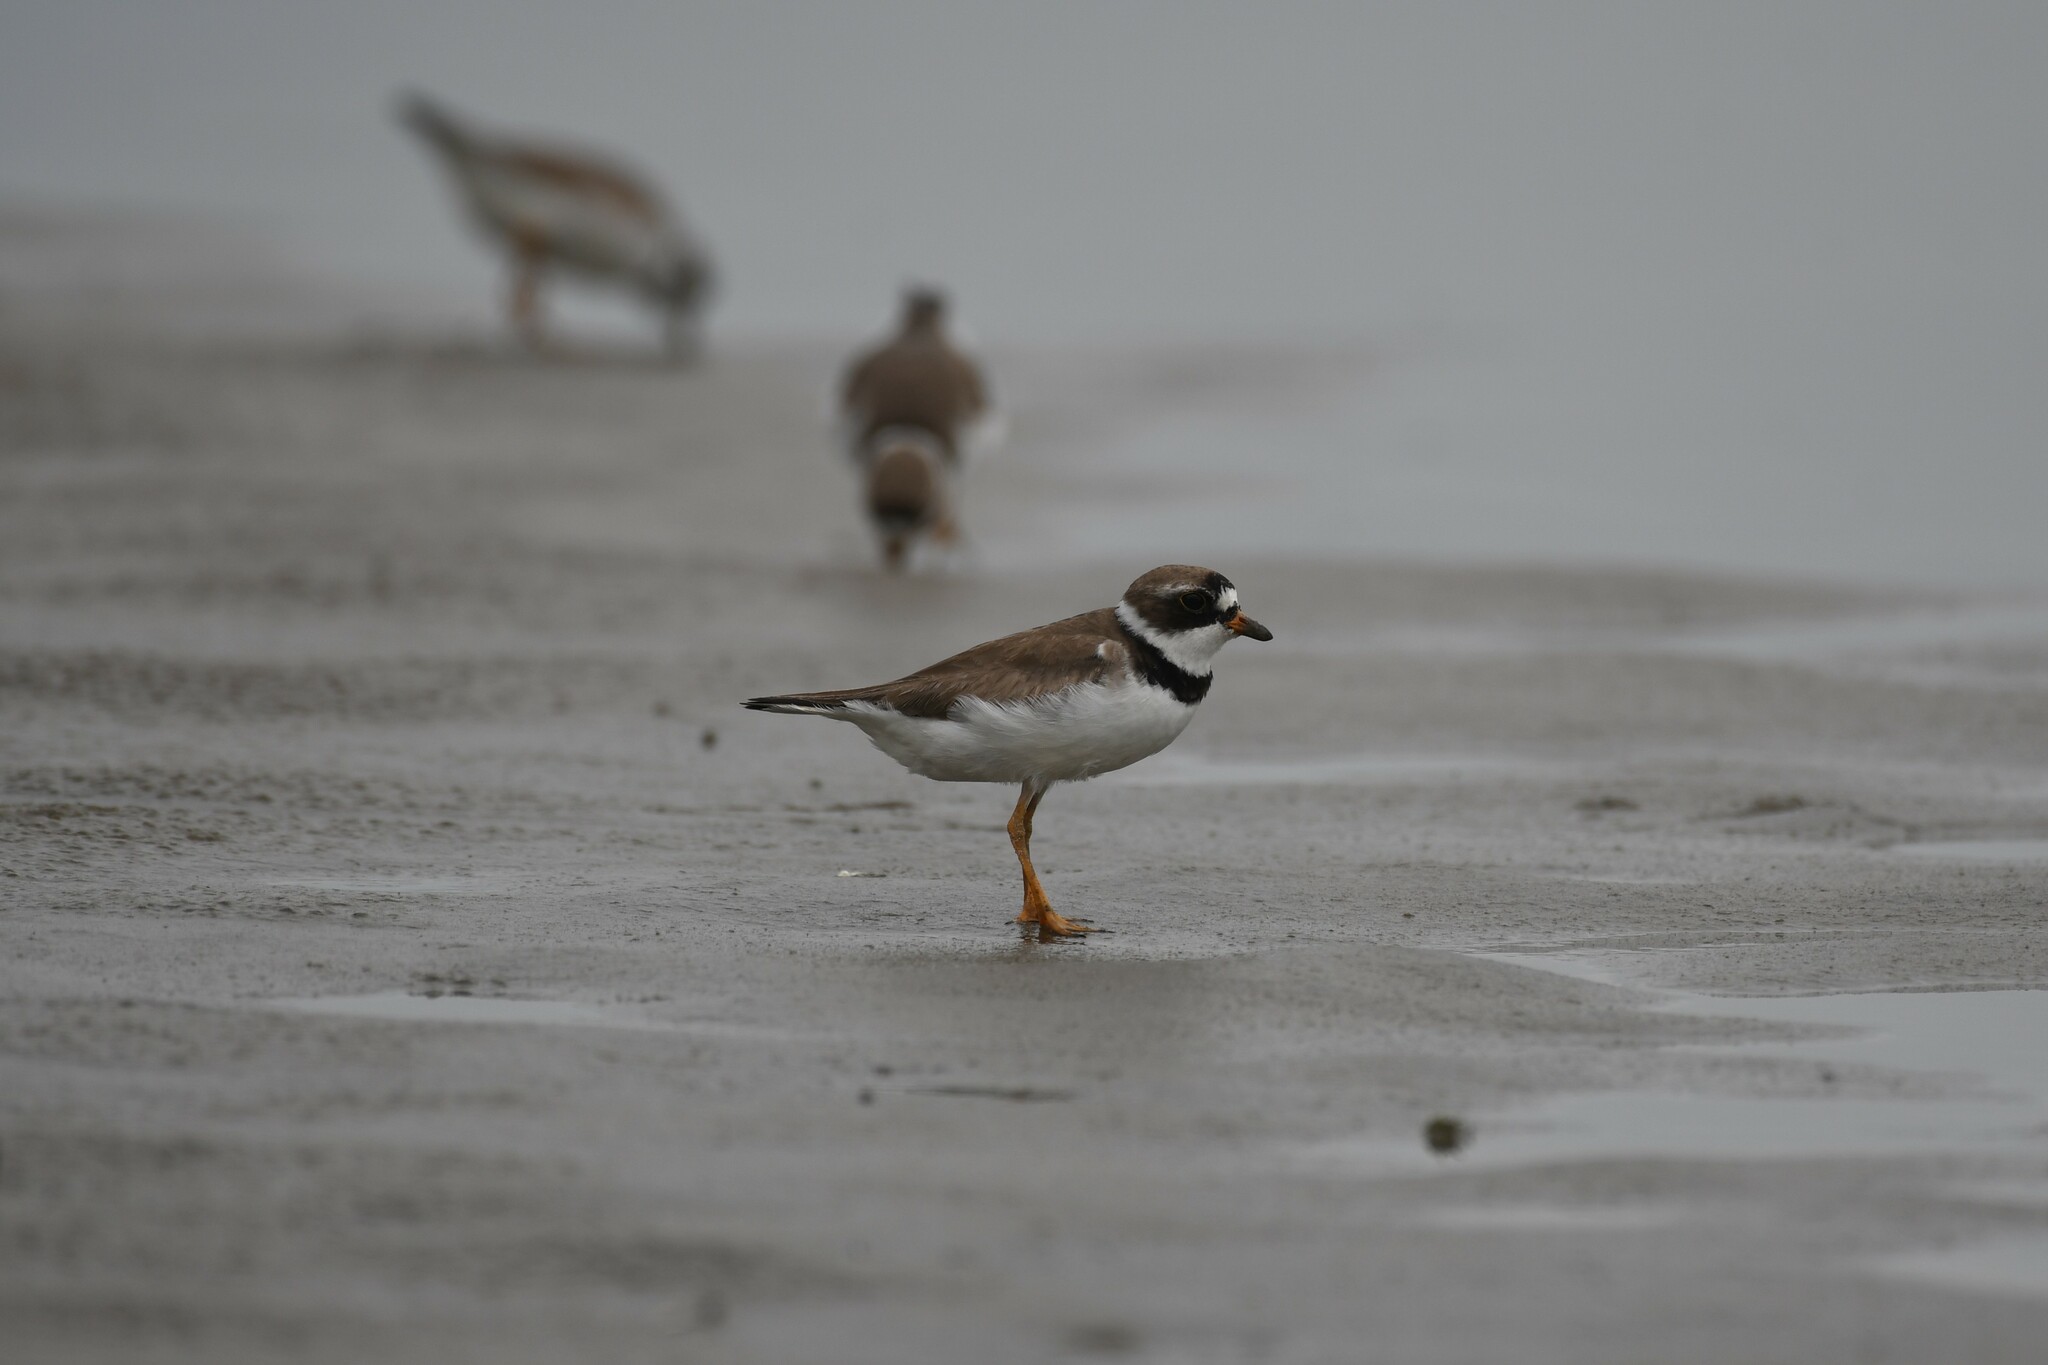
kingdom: Animalia
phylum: Chordata
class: Aves
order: Charadriiformes
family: Charadriidae
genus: Charadrius
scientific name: Charadrius semipalmatus
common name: Semipalmated plover
